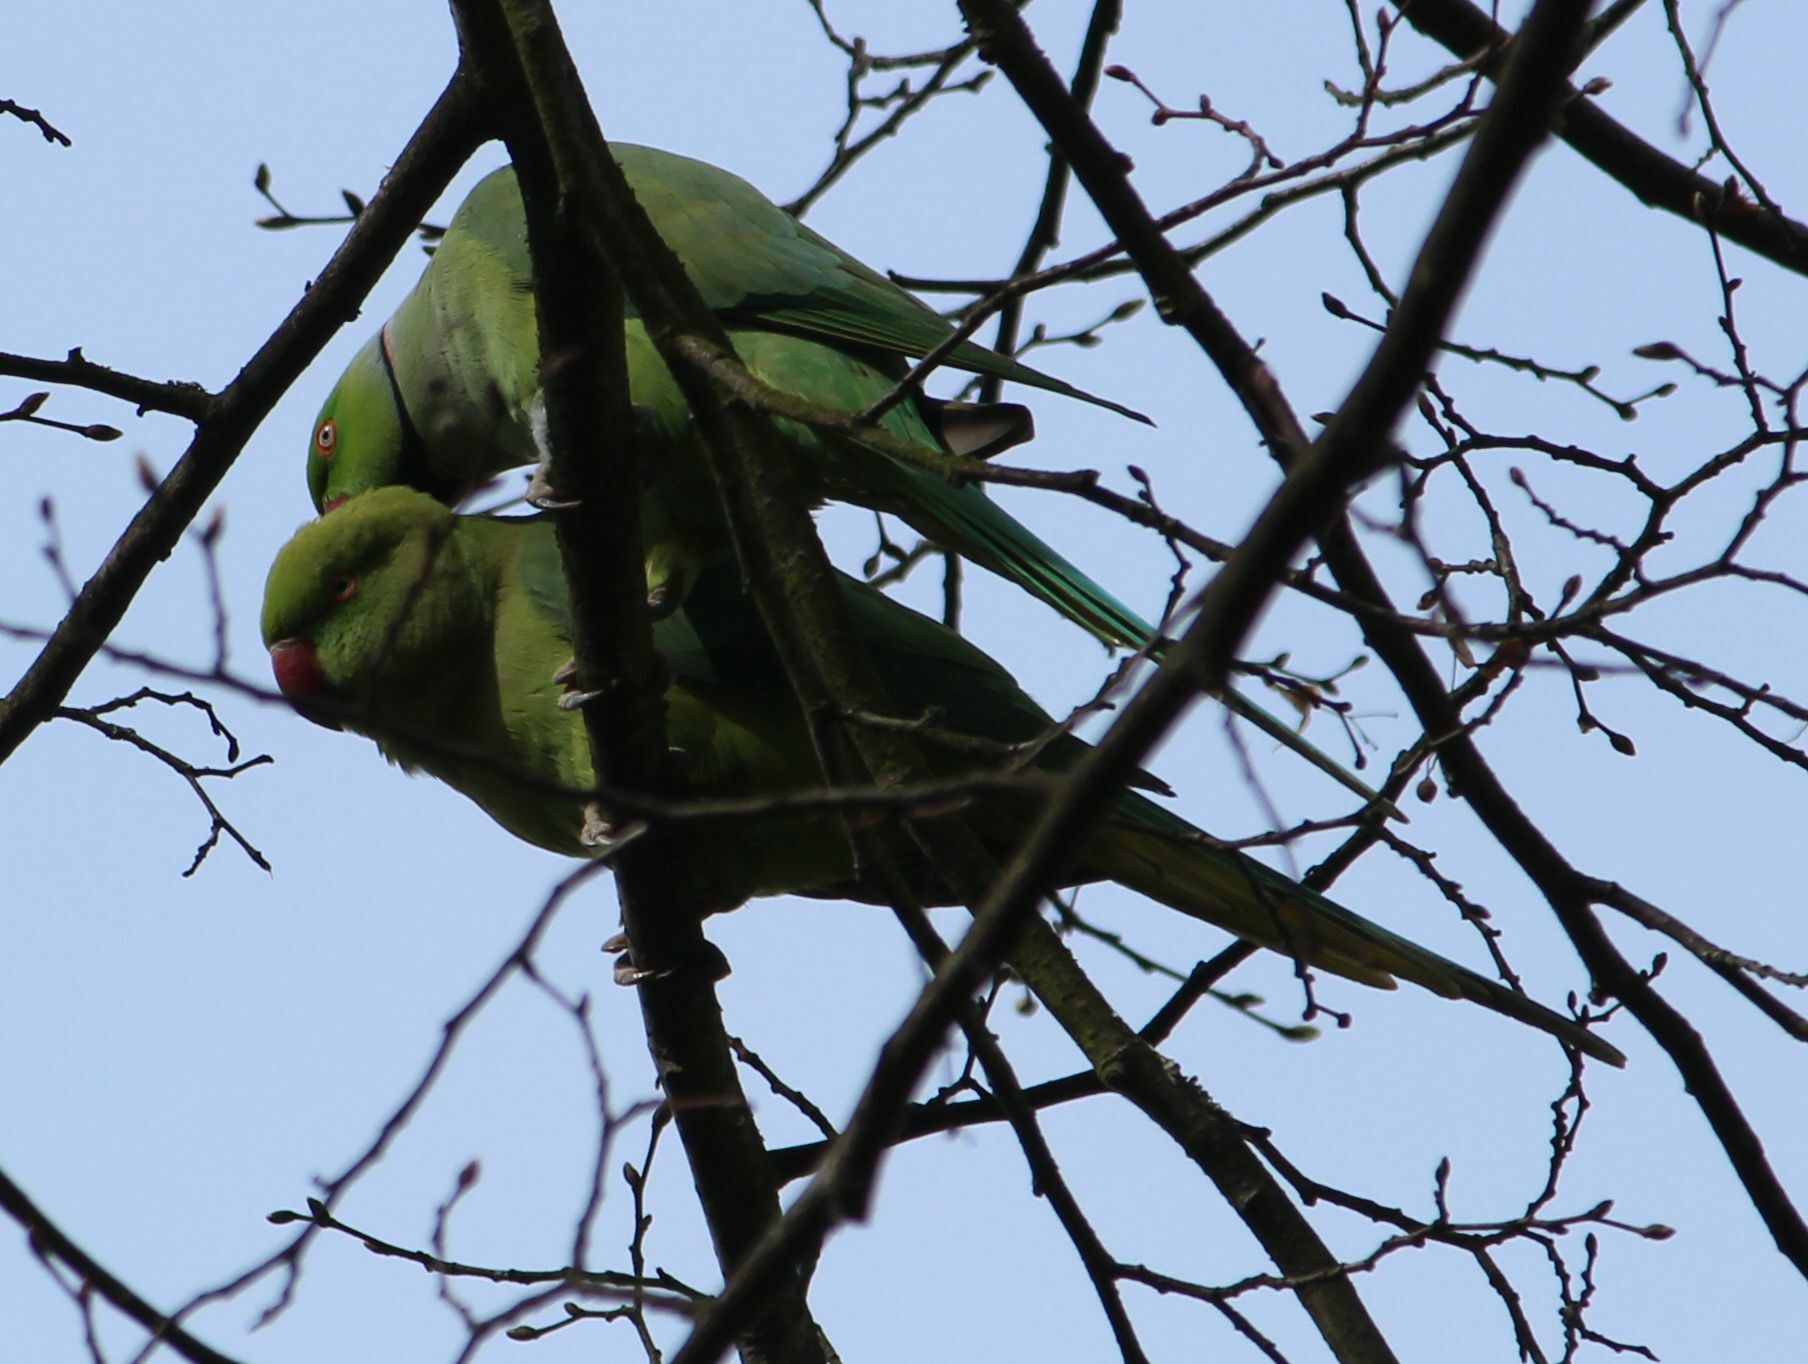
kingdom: Animalia
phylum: Chordata
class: Aves
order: Psittaciformes
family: Psittacidae
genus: Psittacula
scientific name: Psittacula krameri
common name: Rose-ringed parakeet
